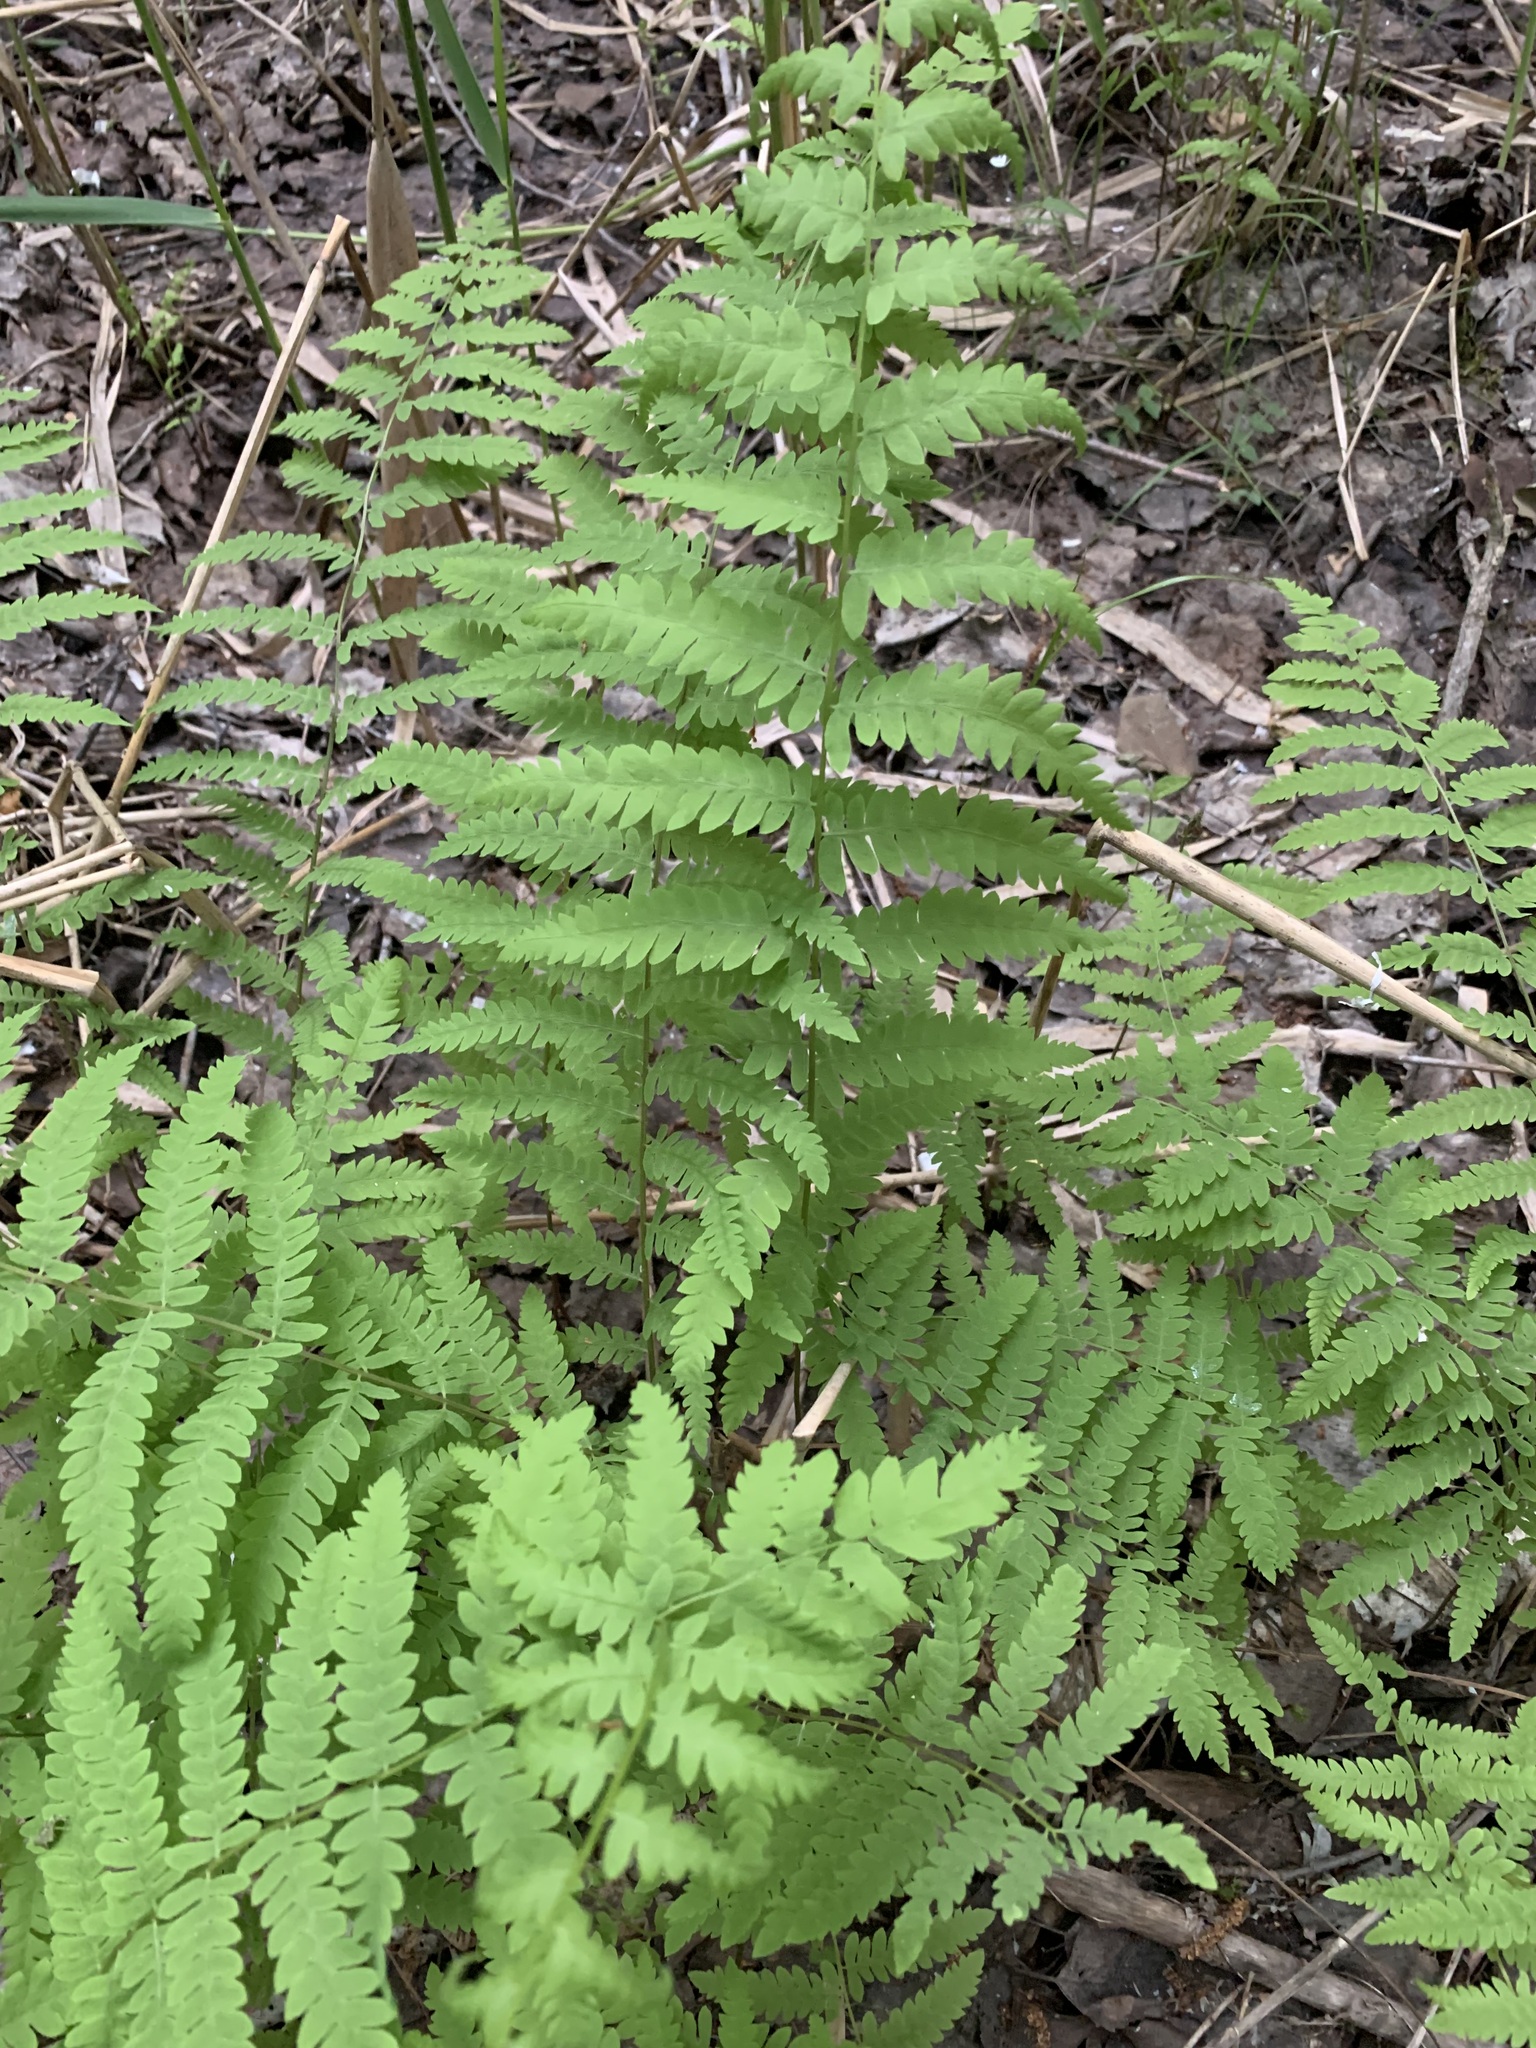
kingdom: Plantae
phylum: Tracheophyta
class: Polypodiopsida
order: Polypodiales
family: Thelypteridaceae
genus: Thelypteris
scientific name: Thelypteris palustris
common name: Marsh fern
